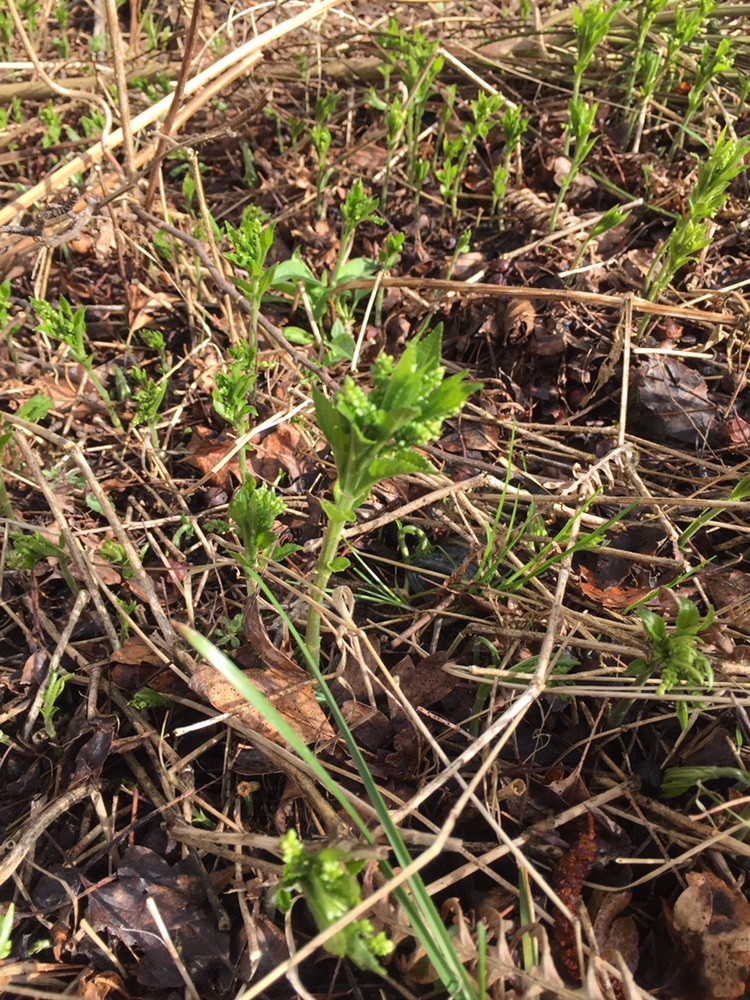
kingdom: Plantae
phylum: Tracheophyta
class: Magnoliopsida
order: Malpighiales
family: Euphorbiaceae
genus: Mercurialis
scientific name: Mercurialis perennis
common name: Dog mercury
